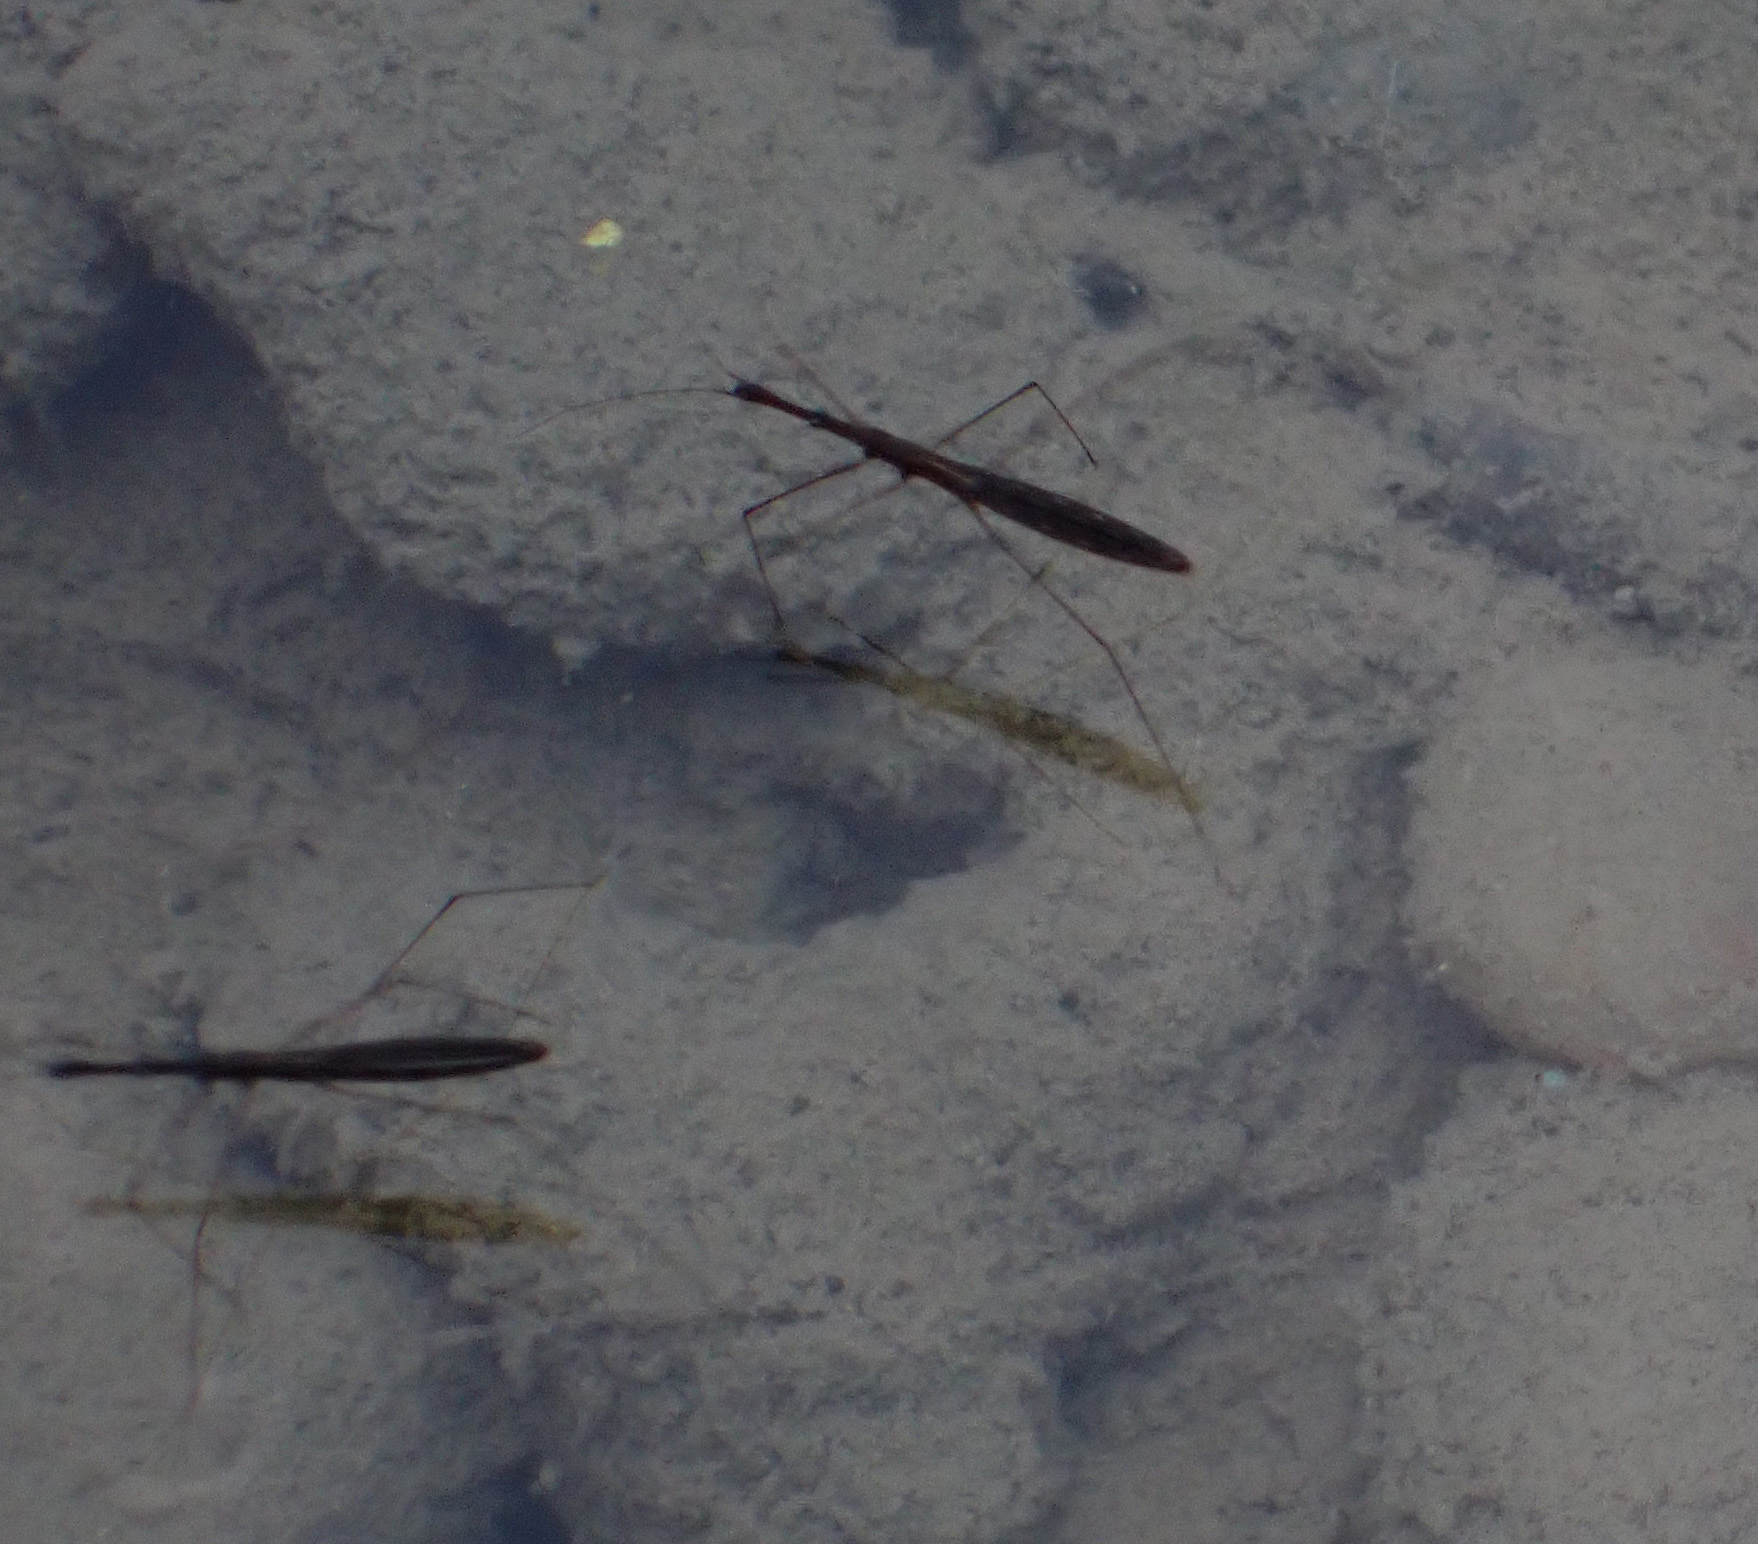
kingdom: Animalia
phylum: Arthropoda
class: Insecta
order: Hemiptera
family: Hydrometridae
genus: Hydrometra
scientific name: Hydrometra stagnorum
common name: Water measurer
